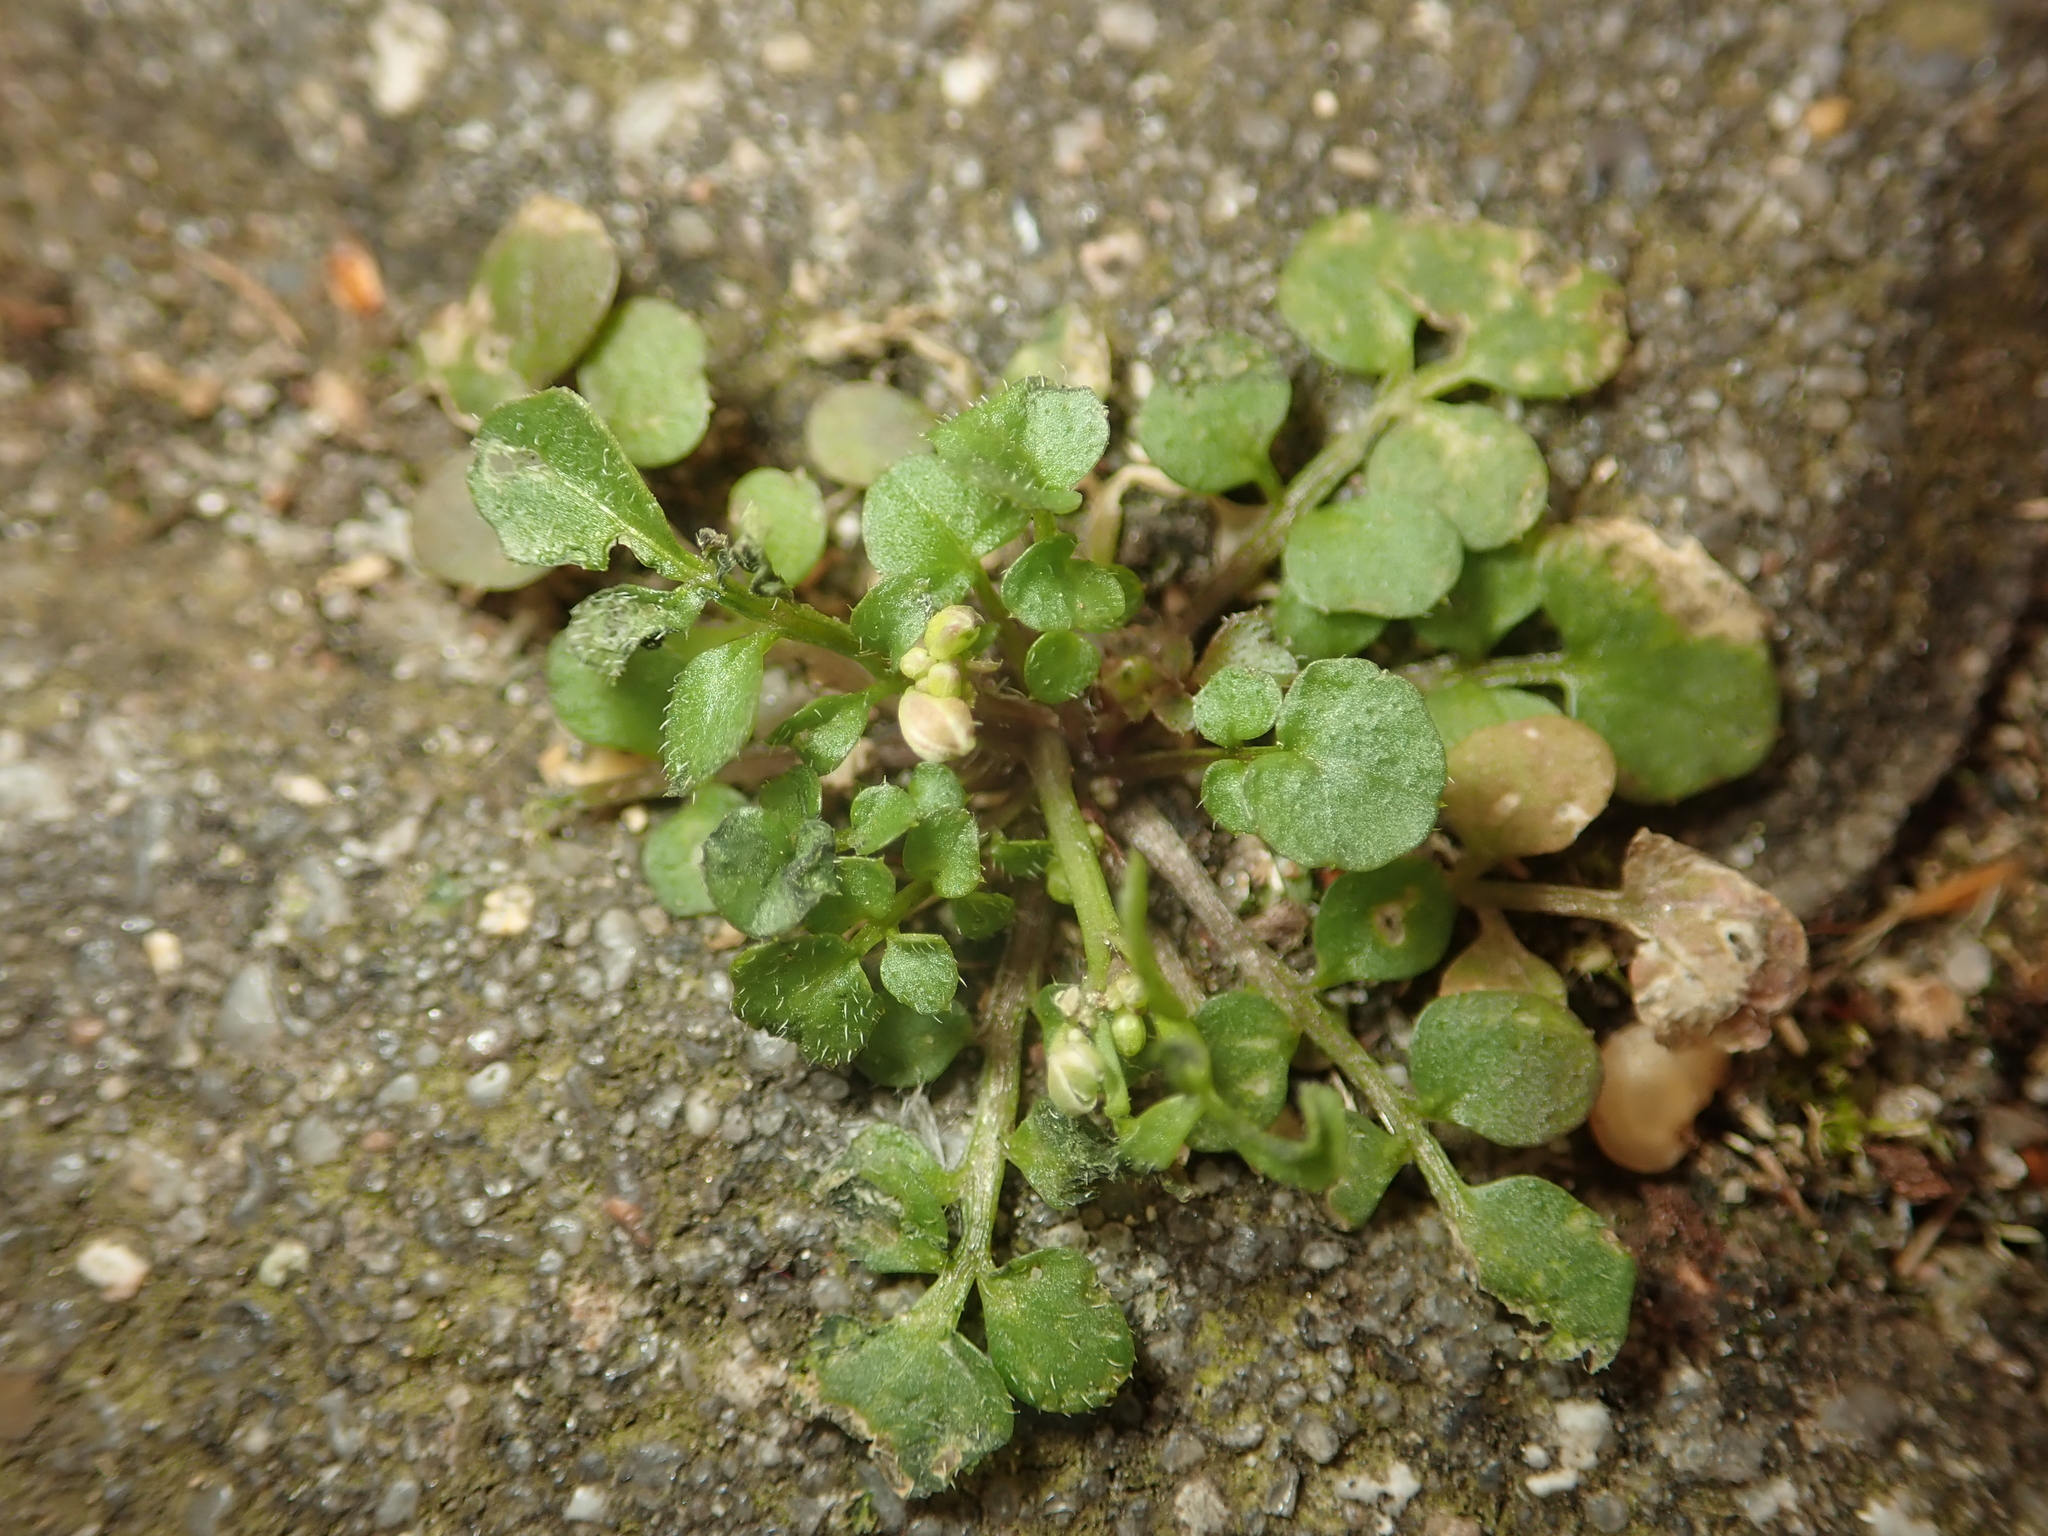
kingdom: Plantae
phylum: Tracheophyta
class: Magnoliopsida
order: Brassicales
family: Brassicaceae
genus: Cardamine
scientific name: Cardamine hirsuta
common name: Hairy bittercress
